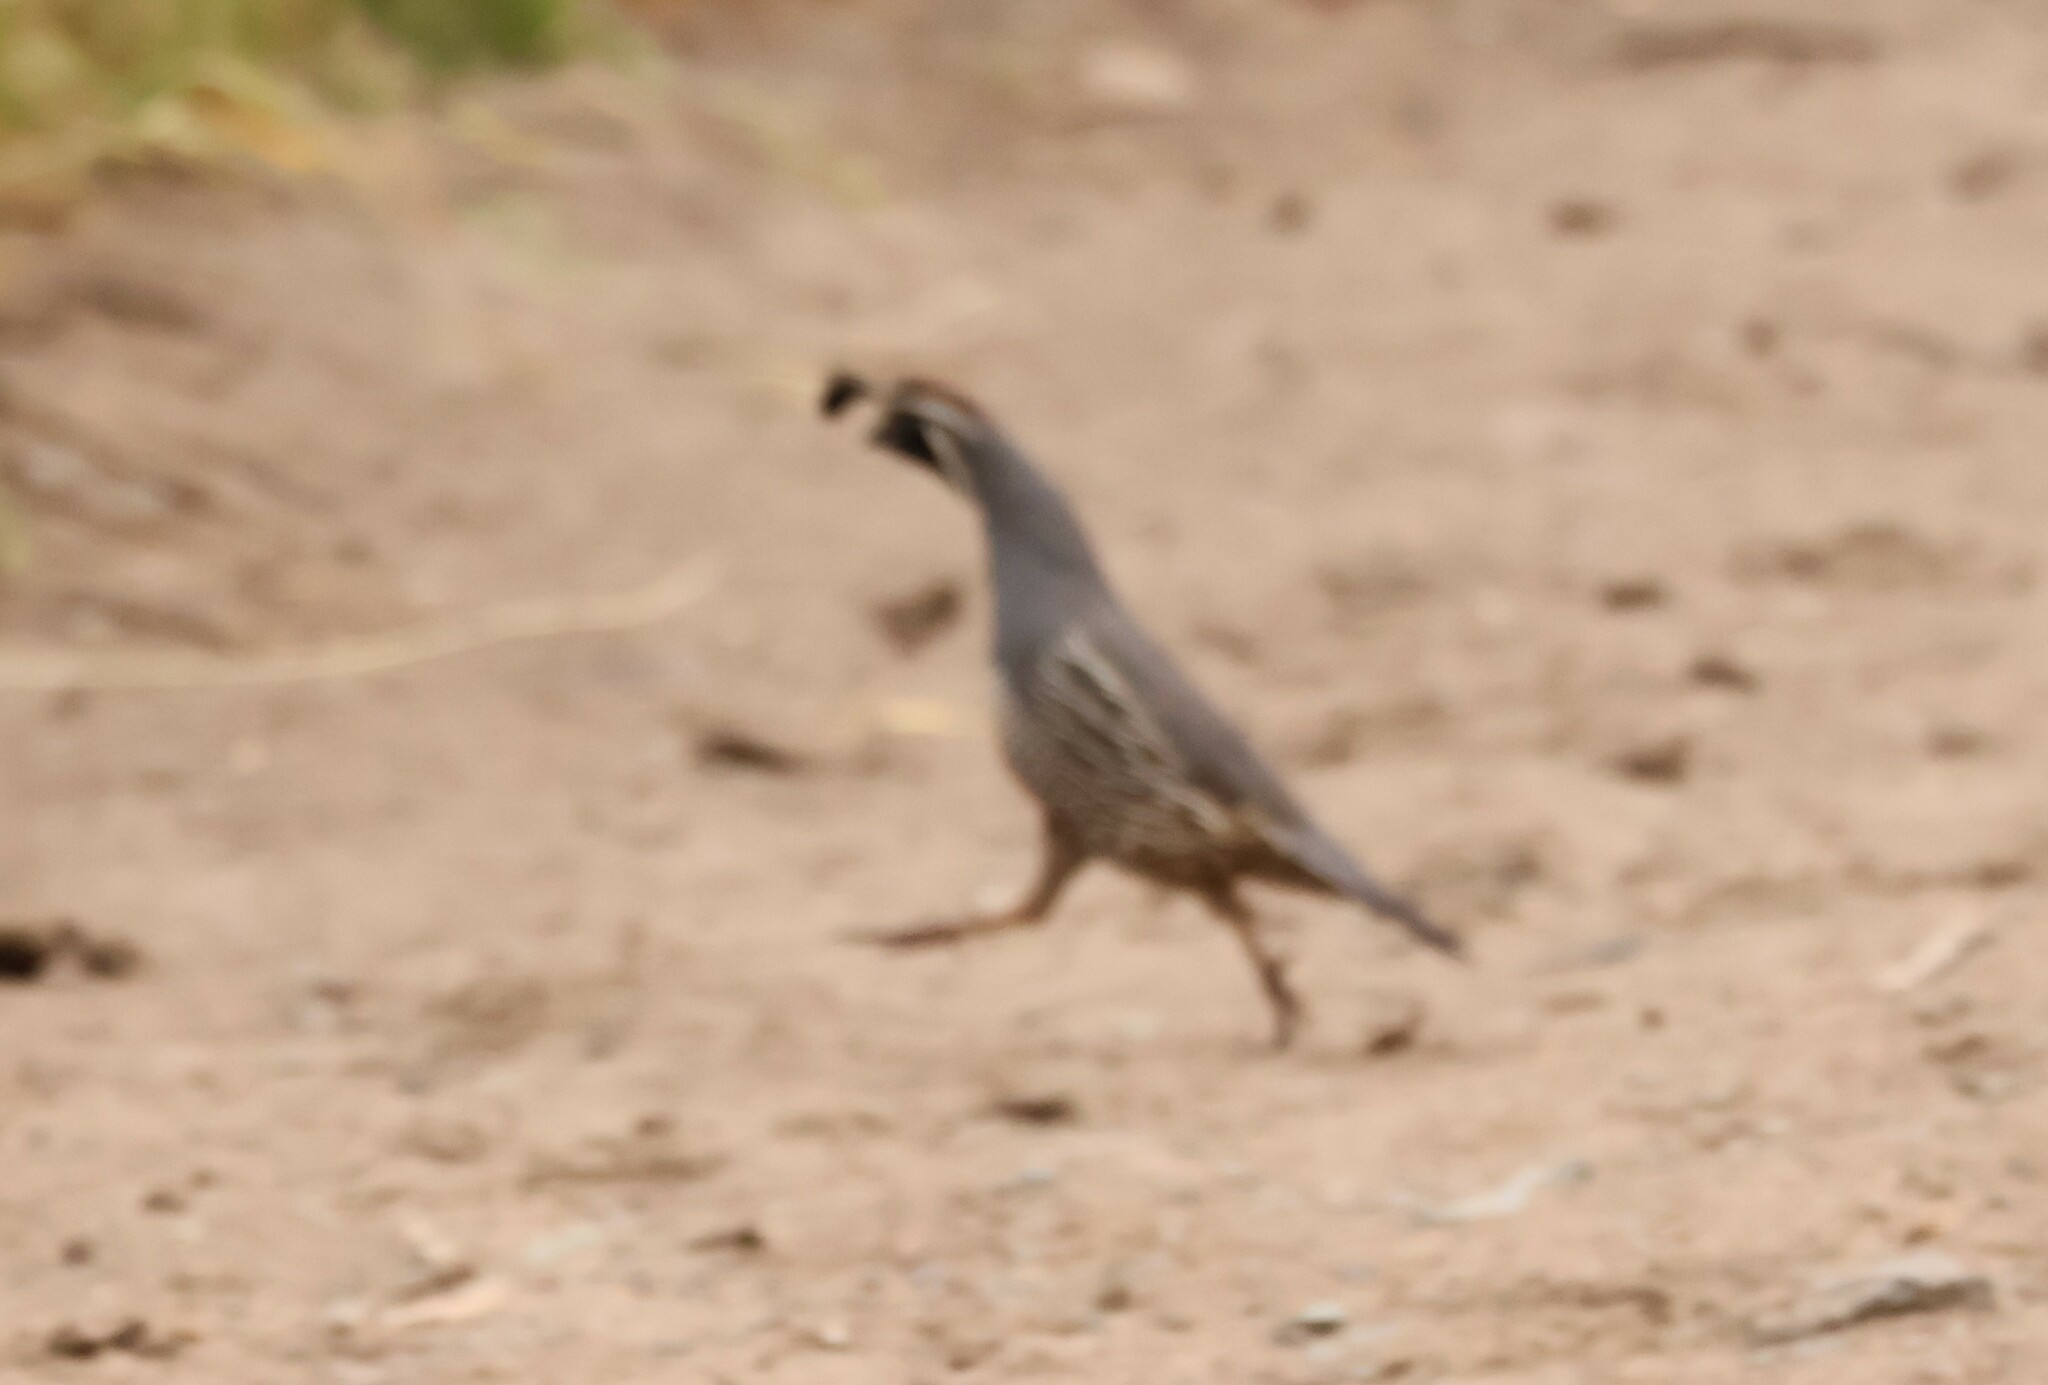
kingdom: Animalia
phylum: Chordata
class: Aves
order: Galliformes
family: Odontophoridae
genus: Callipepla
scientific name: Callipepla californica
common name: California quail
